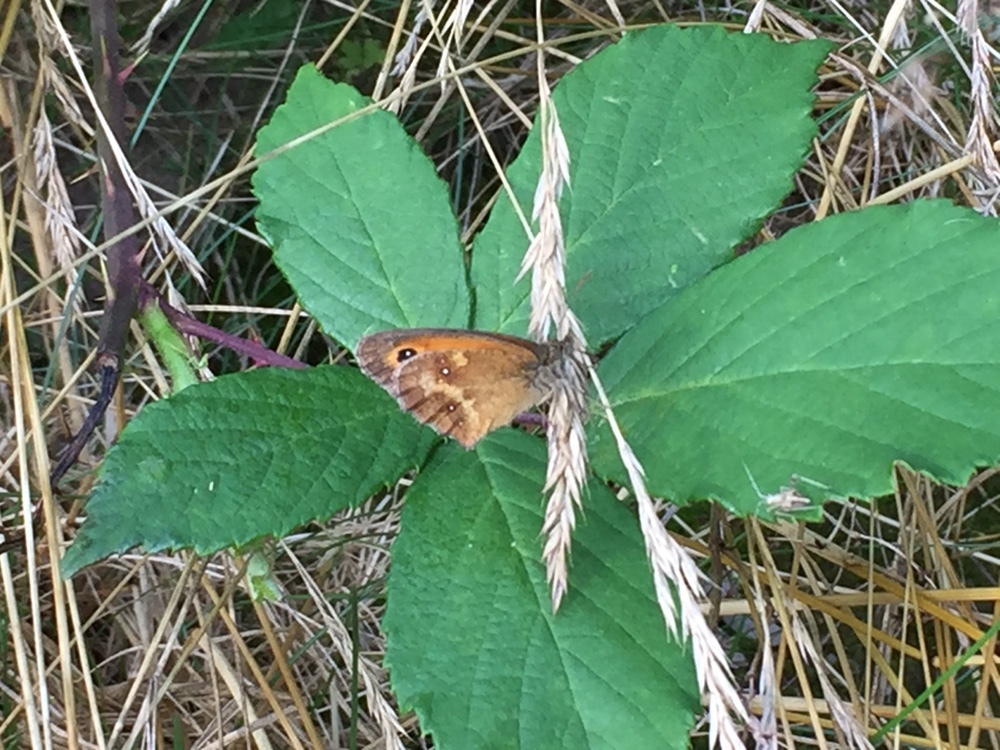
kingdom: Animalia
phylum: Arthropoda
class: Insecta
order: Lepidoptera
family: Nymphalidae
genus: Pyronia
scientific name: Pyronia tithonus
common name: Gatekeeper
